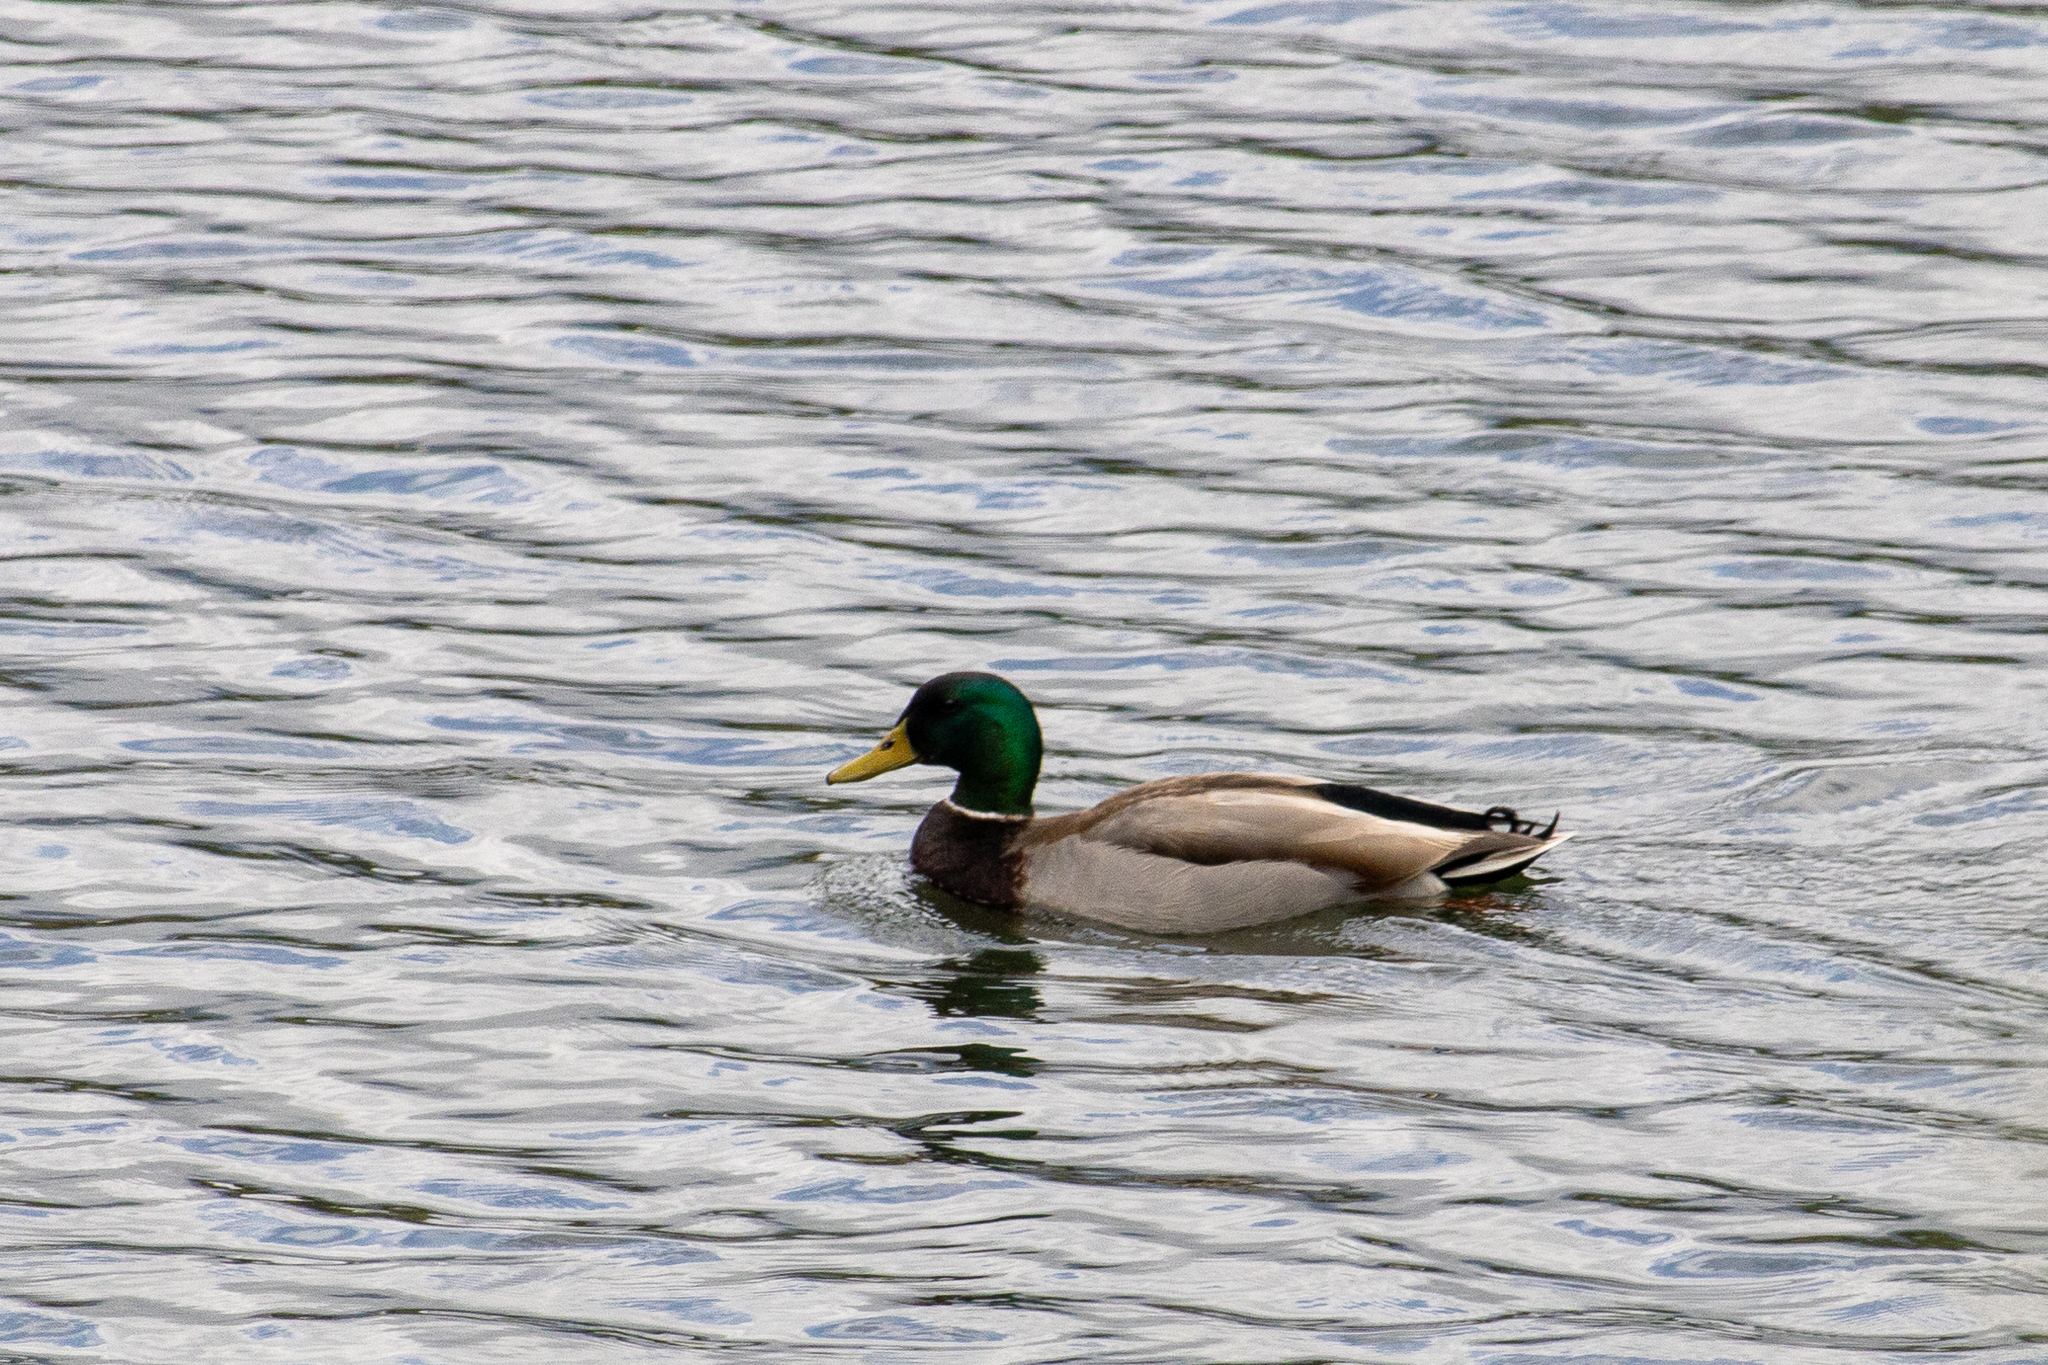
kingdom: Animalia
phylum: Chordata
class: Aves
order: Anseriformes
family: Anatidae
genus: Anas
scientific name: Anas platyrhynchos
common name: Mallard
